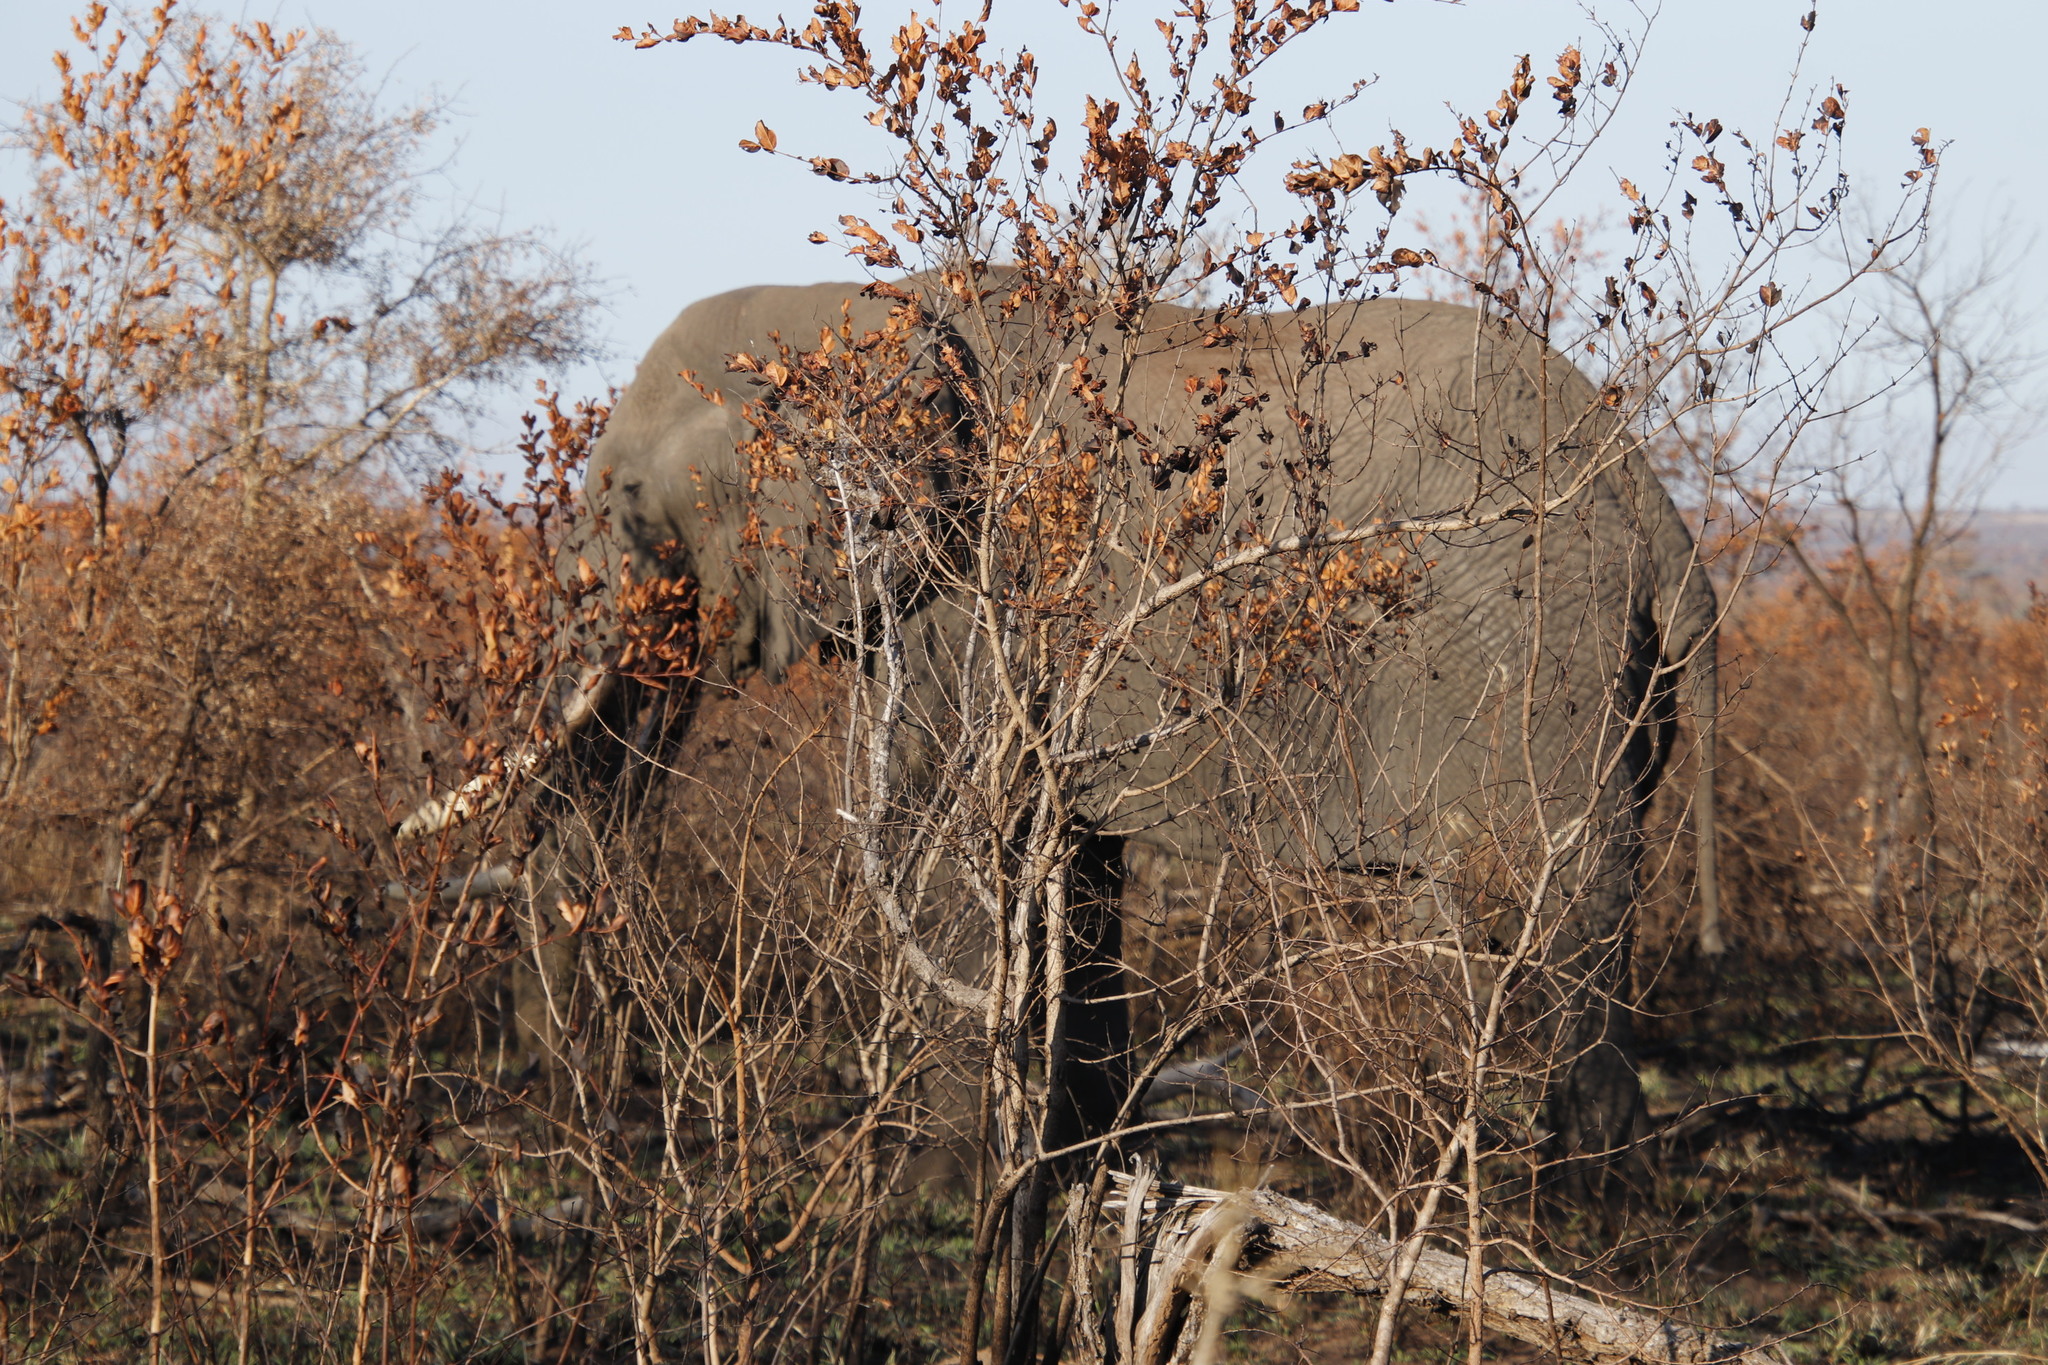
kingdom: Animalia
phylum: Chordata
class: Mammalia
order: Proboscidea
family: Elephantidae
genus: Loxodonta
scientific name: Loxodonta africana
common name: African elephant
